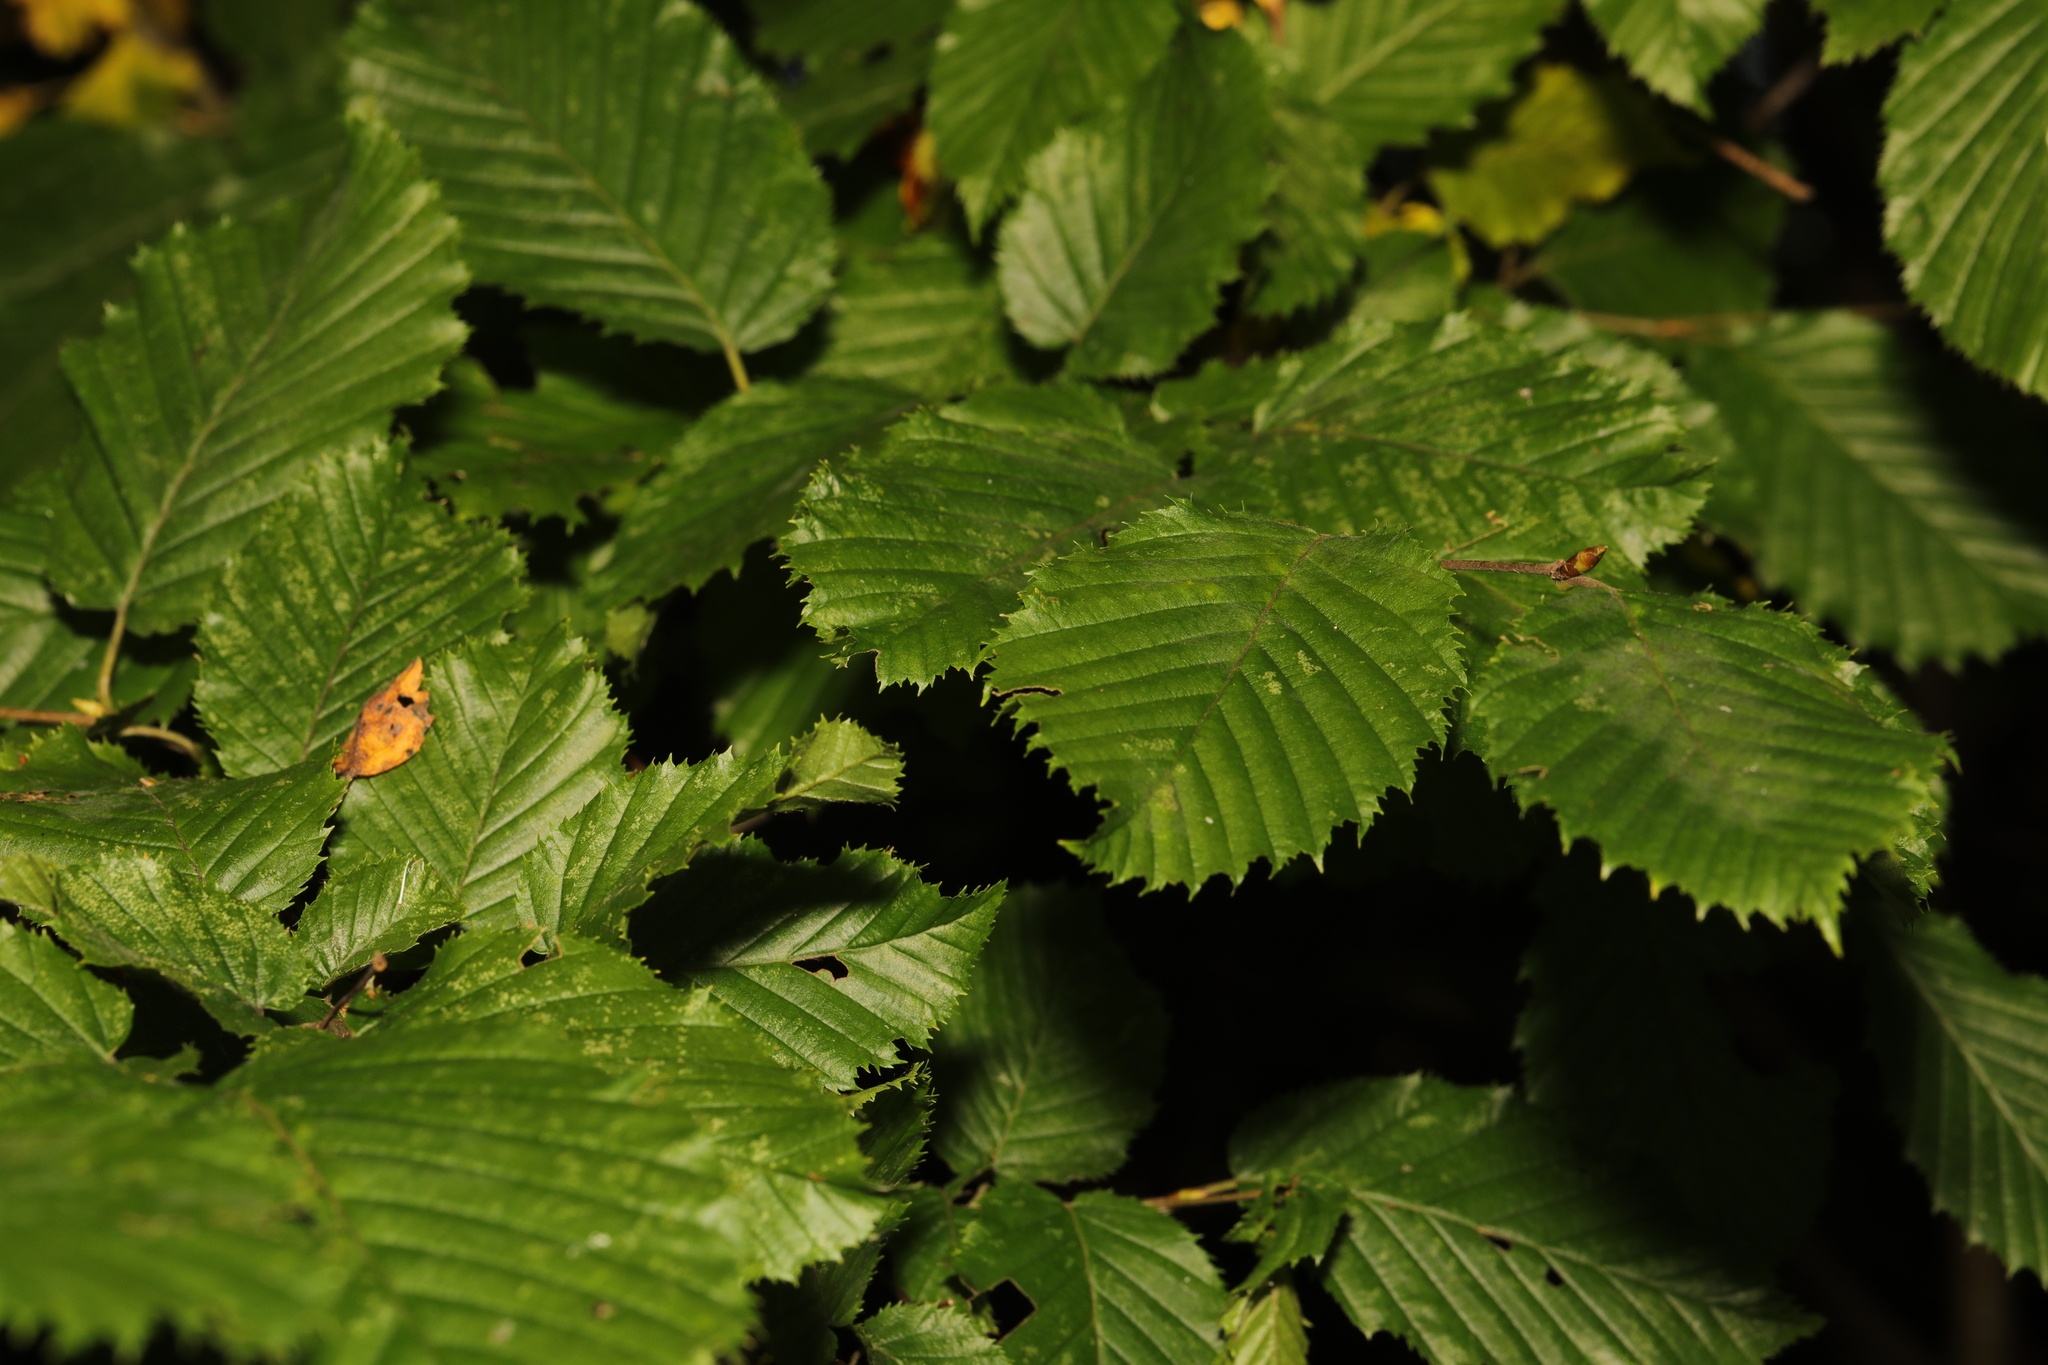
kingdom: Plantae
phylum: Tracheophyta
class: Magnoliopsida
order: Fagales
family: Betulaceae
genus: Carpinus
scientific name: Carpinus betulus
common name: Hornbeam
